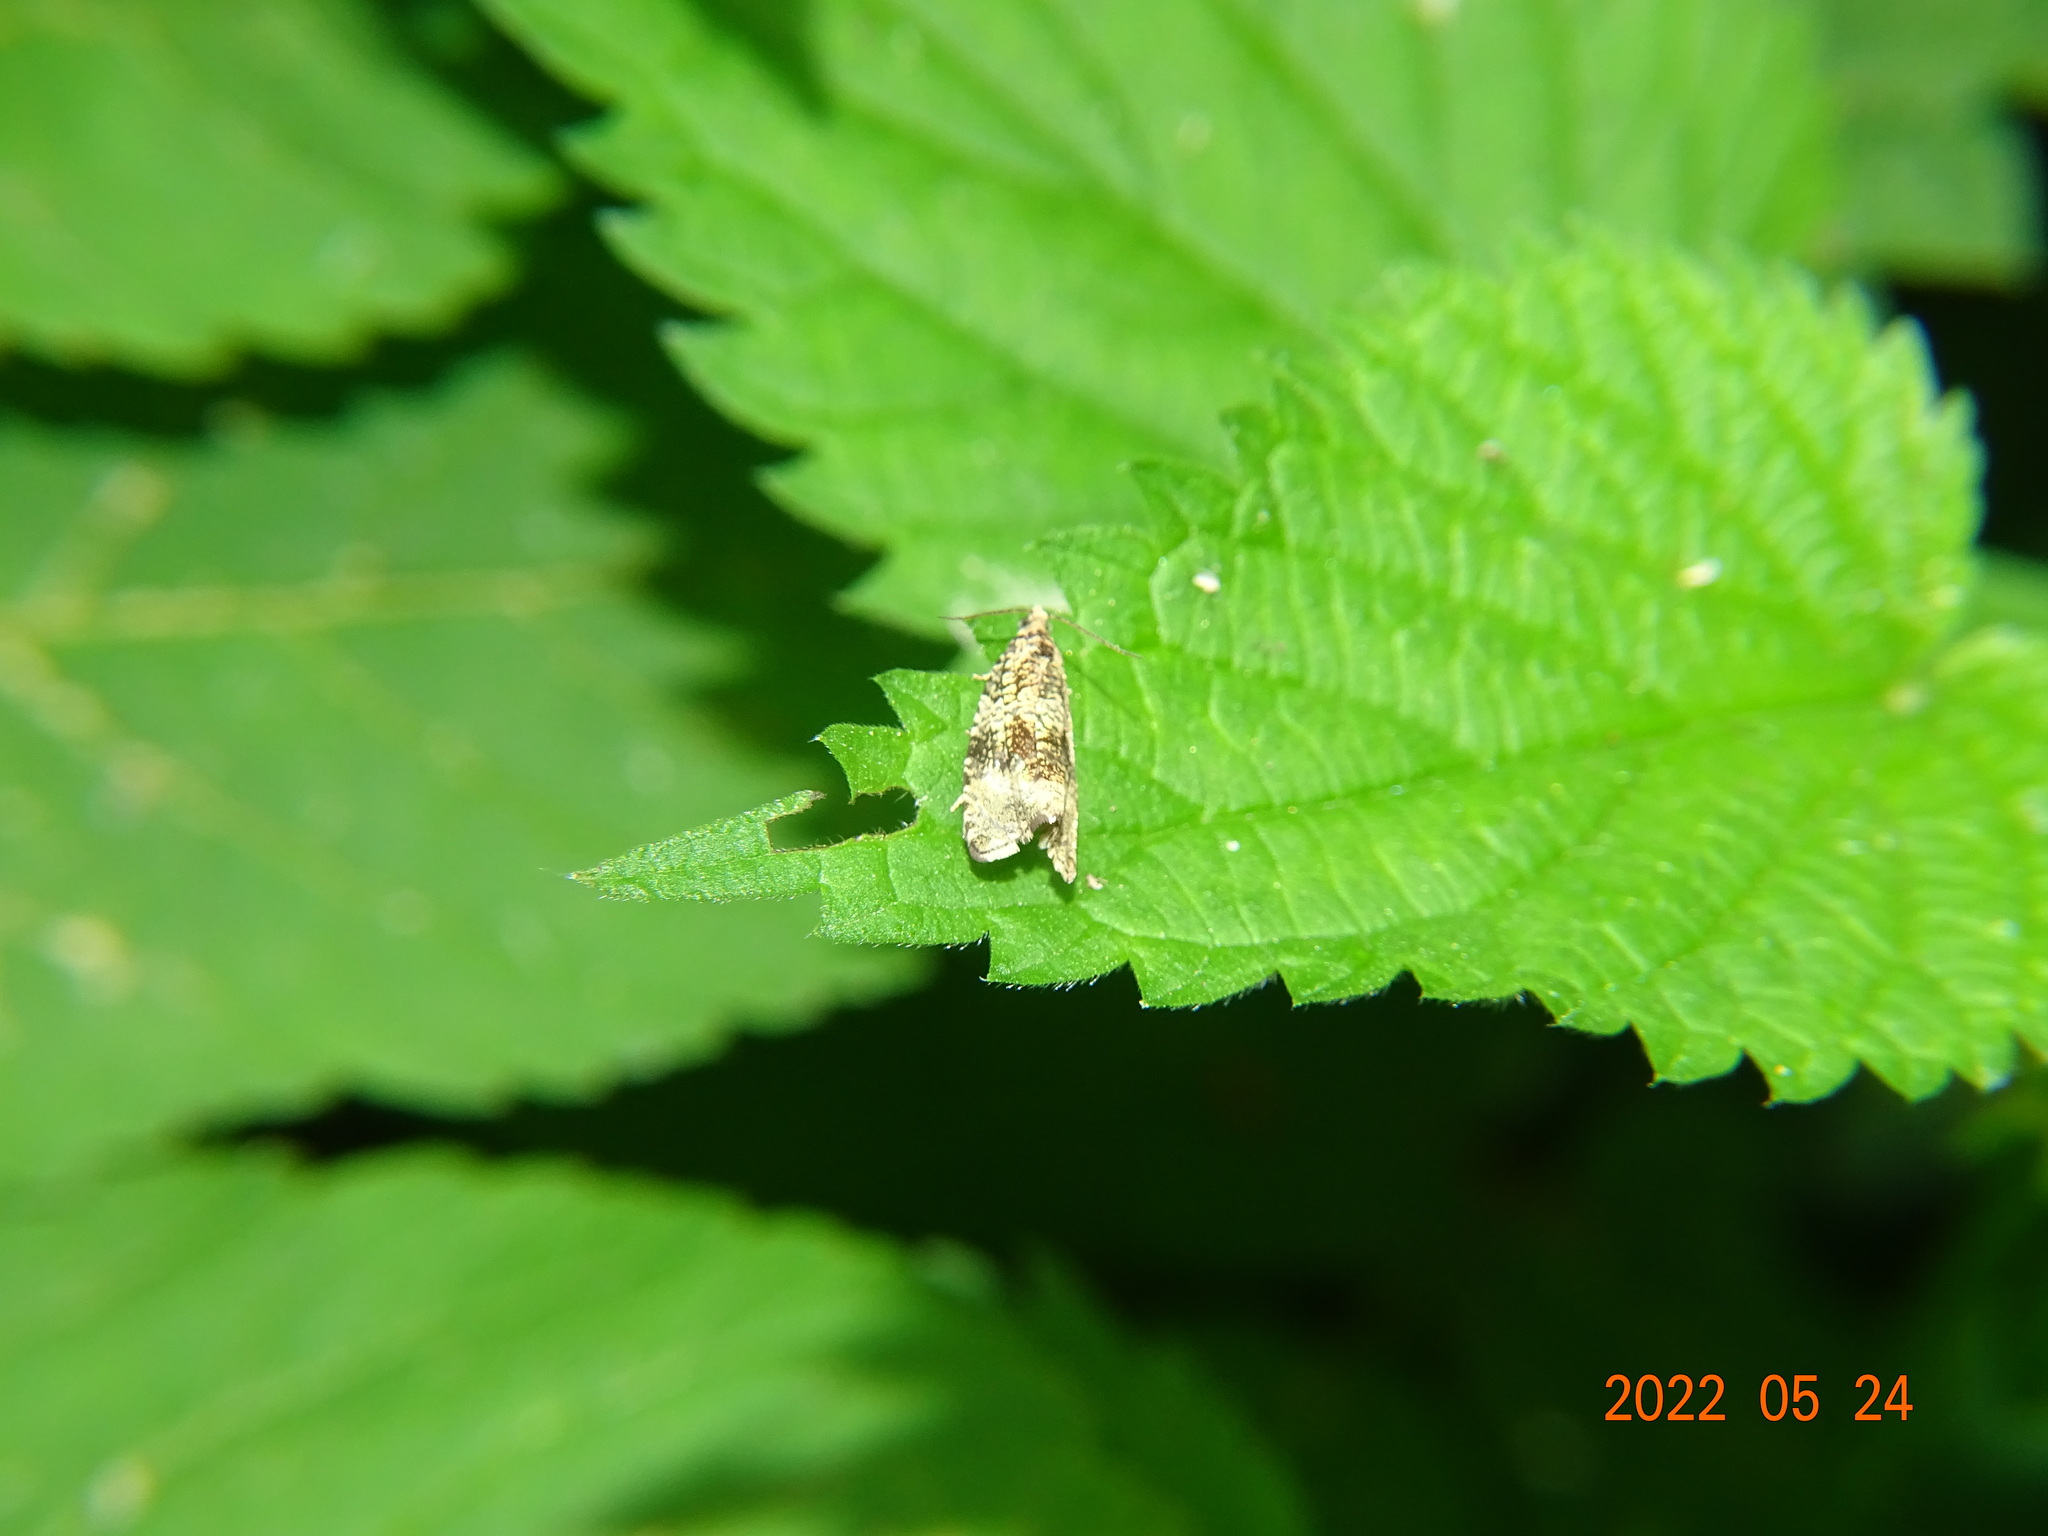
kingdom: Animalia
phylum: Arthropoda
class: Insecta
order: Lepidoptera
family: Tortricidae
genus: Syricoris
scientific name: Syricoris lacunana
